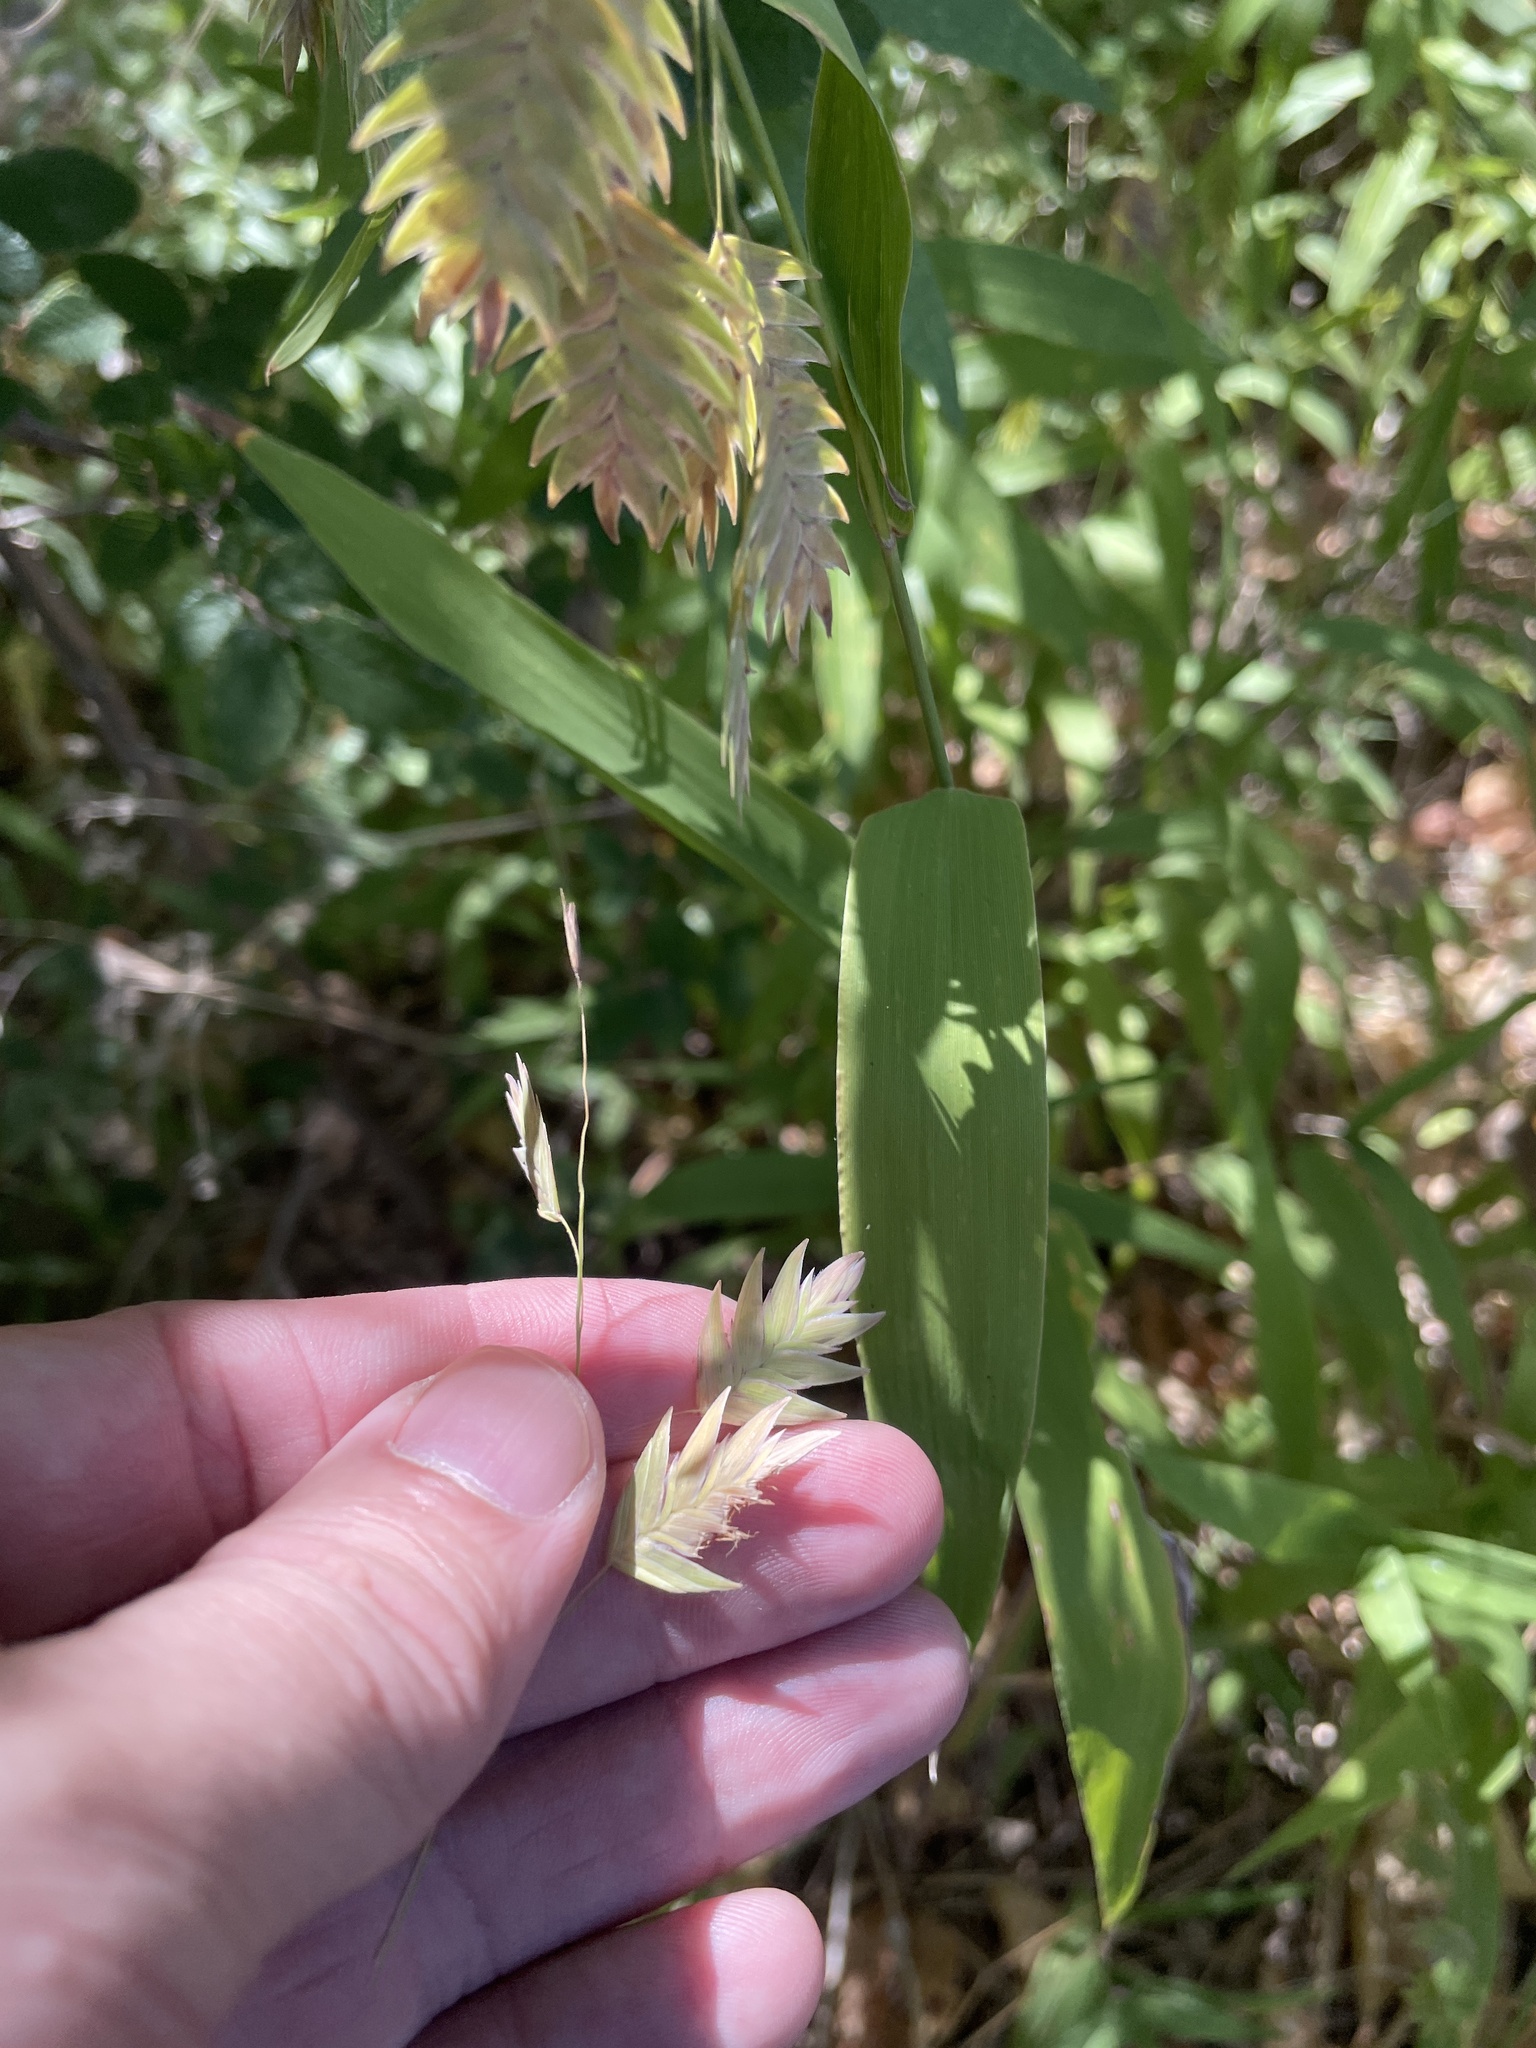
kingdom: Plantae
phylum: Tracheophyta
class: Liliopsida
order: Poales
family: Poaceae
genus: Chasmanthium
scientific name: Chasmanthium latifolium
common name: Broad-leaved chasmanthium
